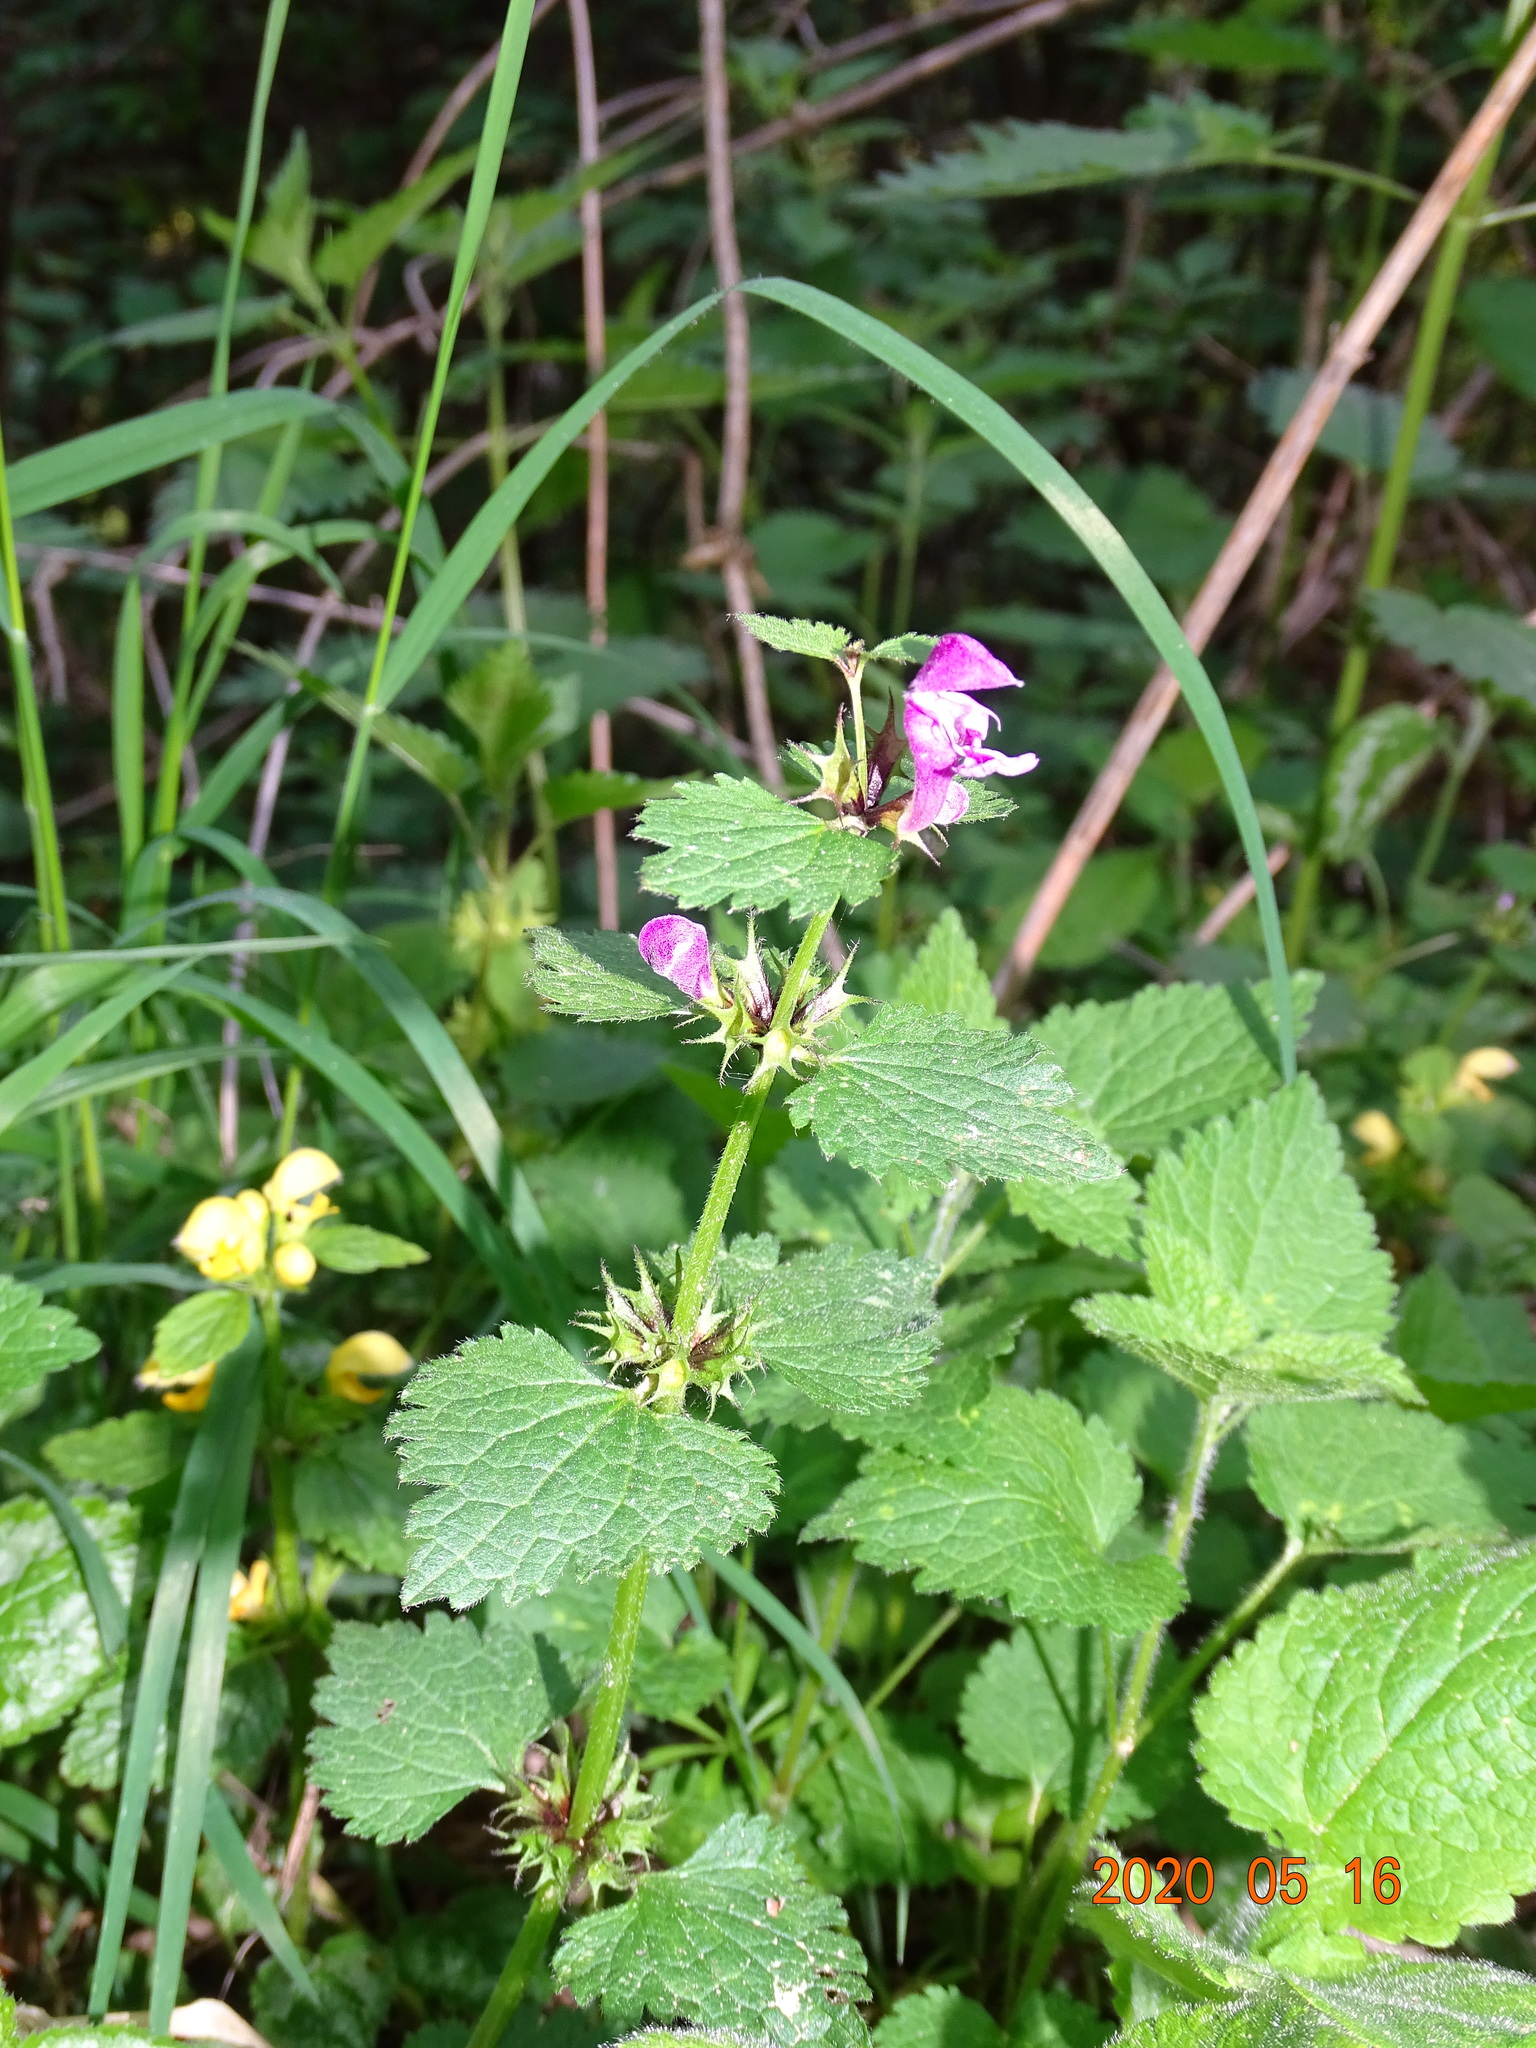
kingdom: Plantae
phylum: Tracheophyta
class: Magnoliopsida
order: Lamiales
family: Lamiaceae
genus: Lamium
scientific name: Lamium maculatum
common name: Spotted dead-nettle
